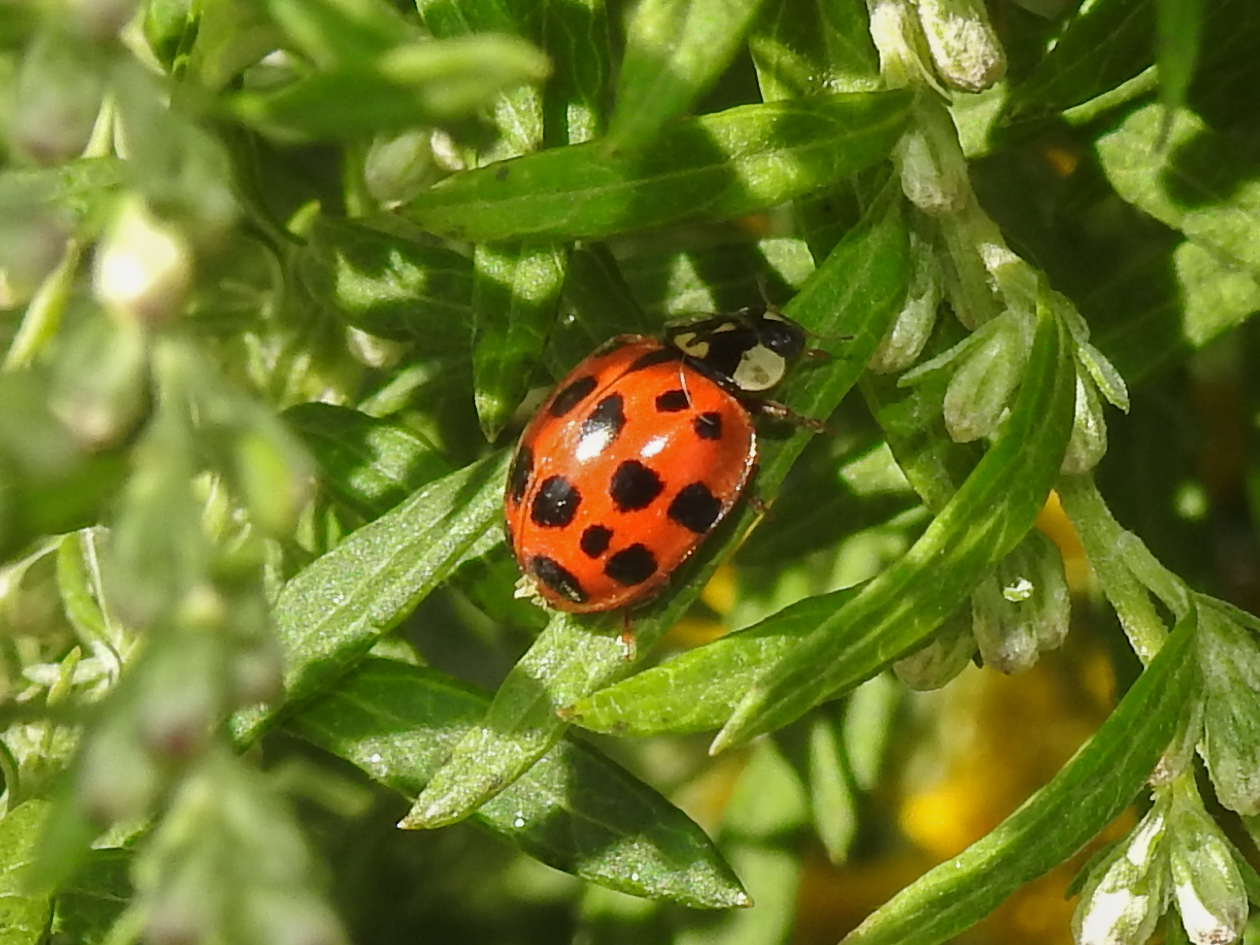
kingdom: Animalia
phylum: Arthropoda
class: Insecta
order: Coleoptera
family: Coccinellidae
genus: Harmonia
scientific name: Harmonia axyridis
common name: Harlequin ladybird
